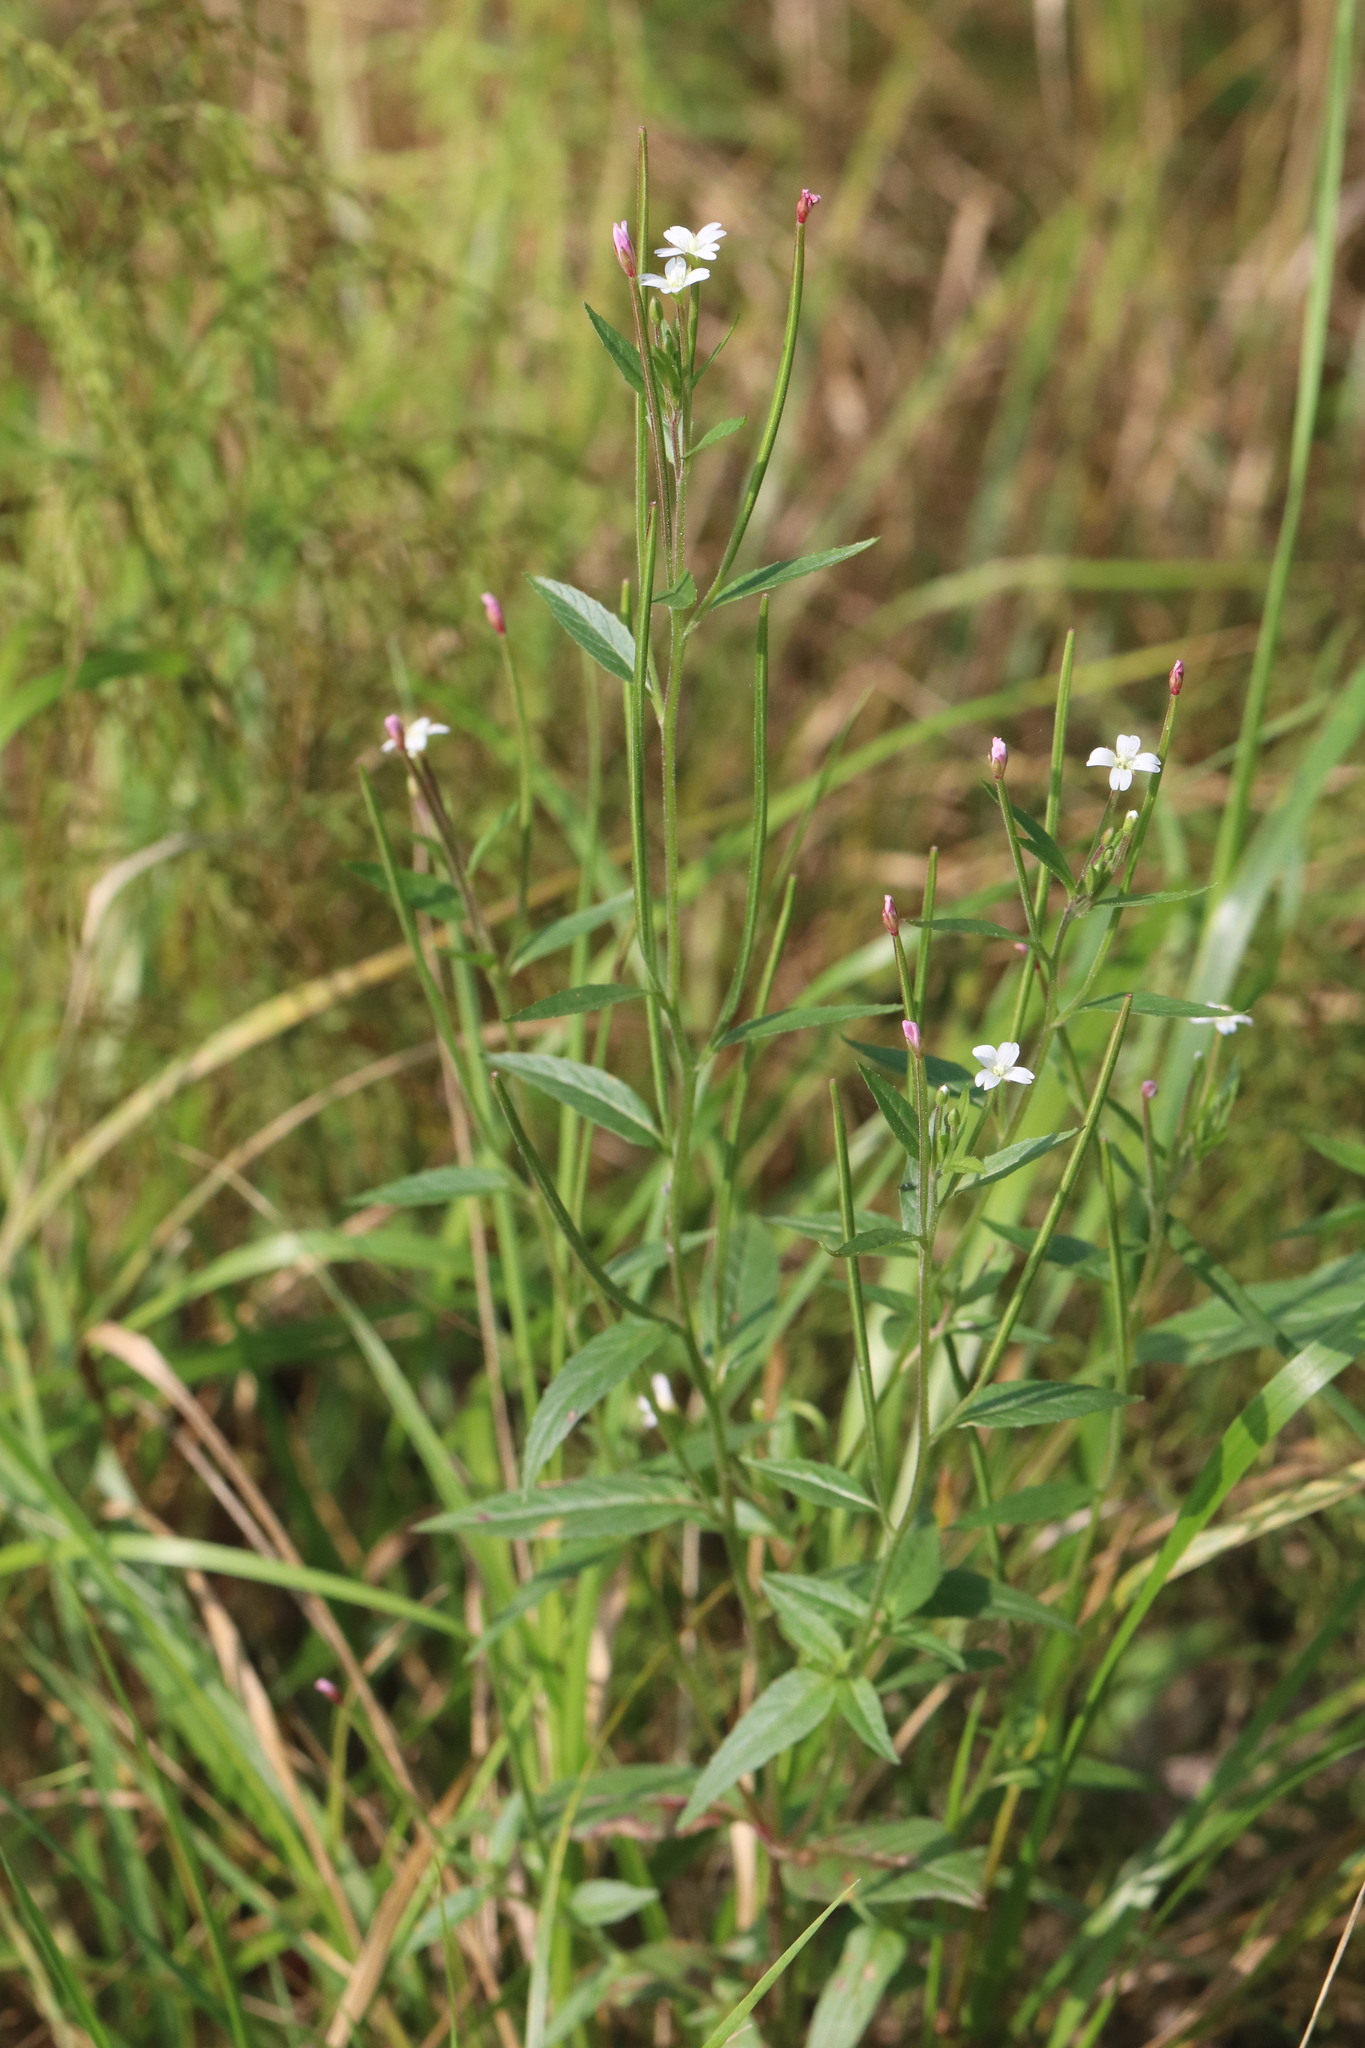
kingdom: Plantae
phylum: Tracheophyta
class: Magnoliopsida
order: Myrtales
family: Onagraceae
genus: Epilobium
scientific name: Epilobium pseudorubescens
